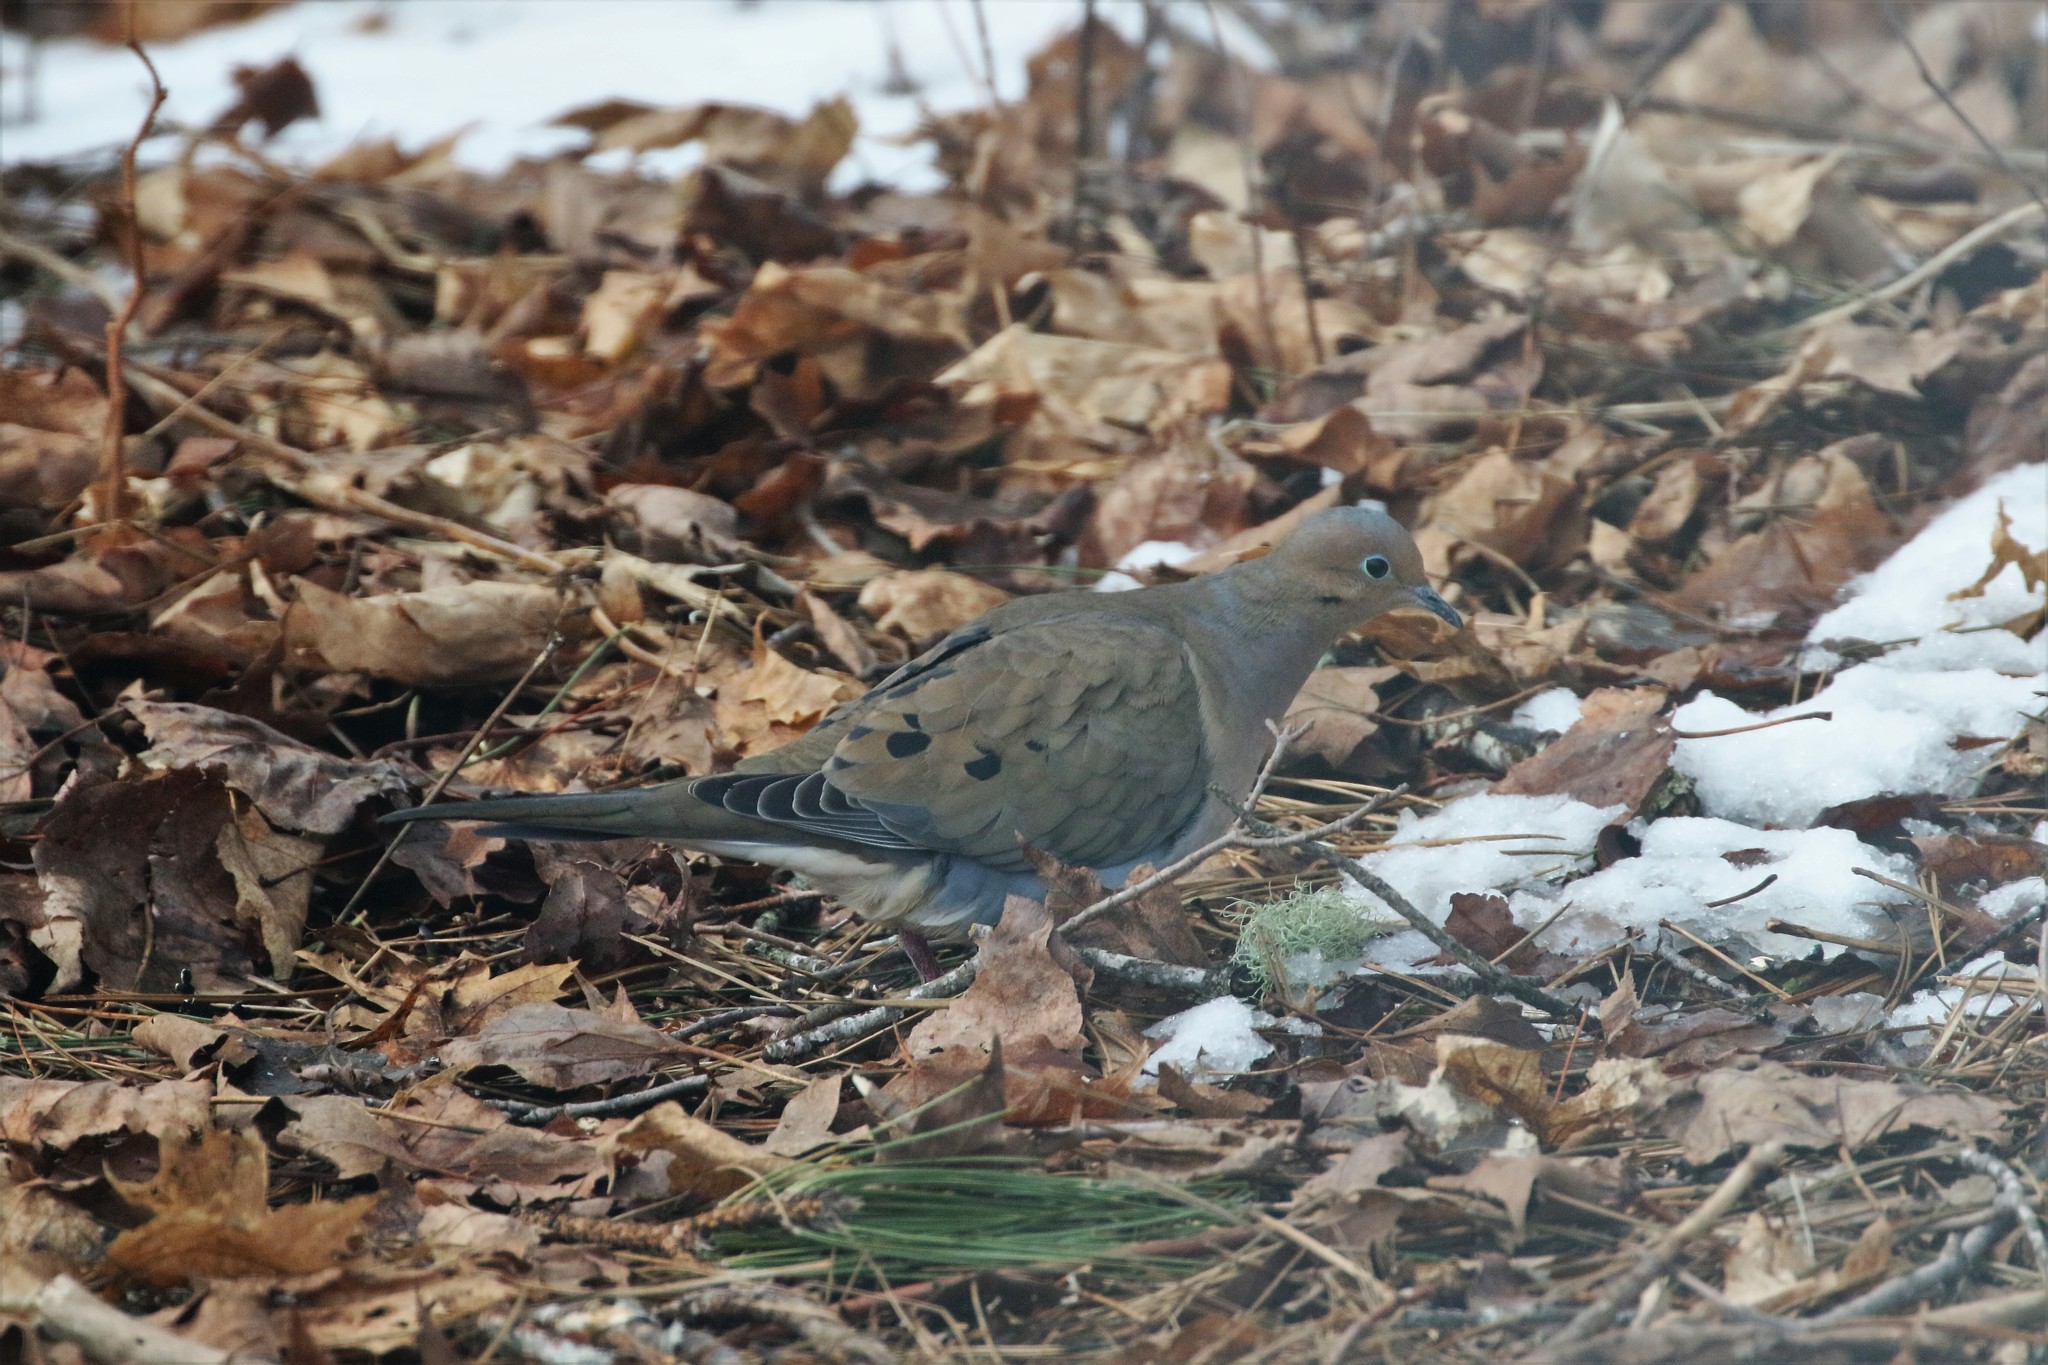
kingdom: Animalia
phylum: Chordata
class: Aves
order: Columbiformes
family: Columbidae
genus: Zenaida
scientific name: Zenaida macroura
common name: Mourning dove
